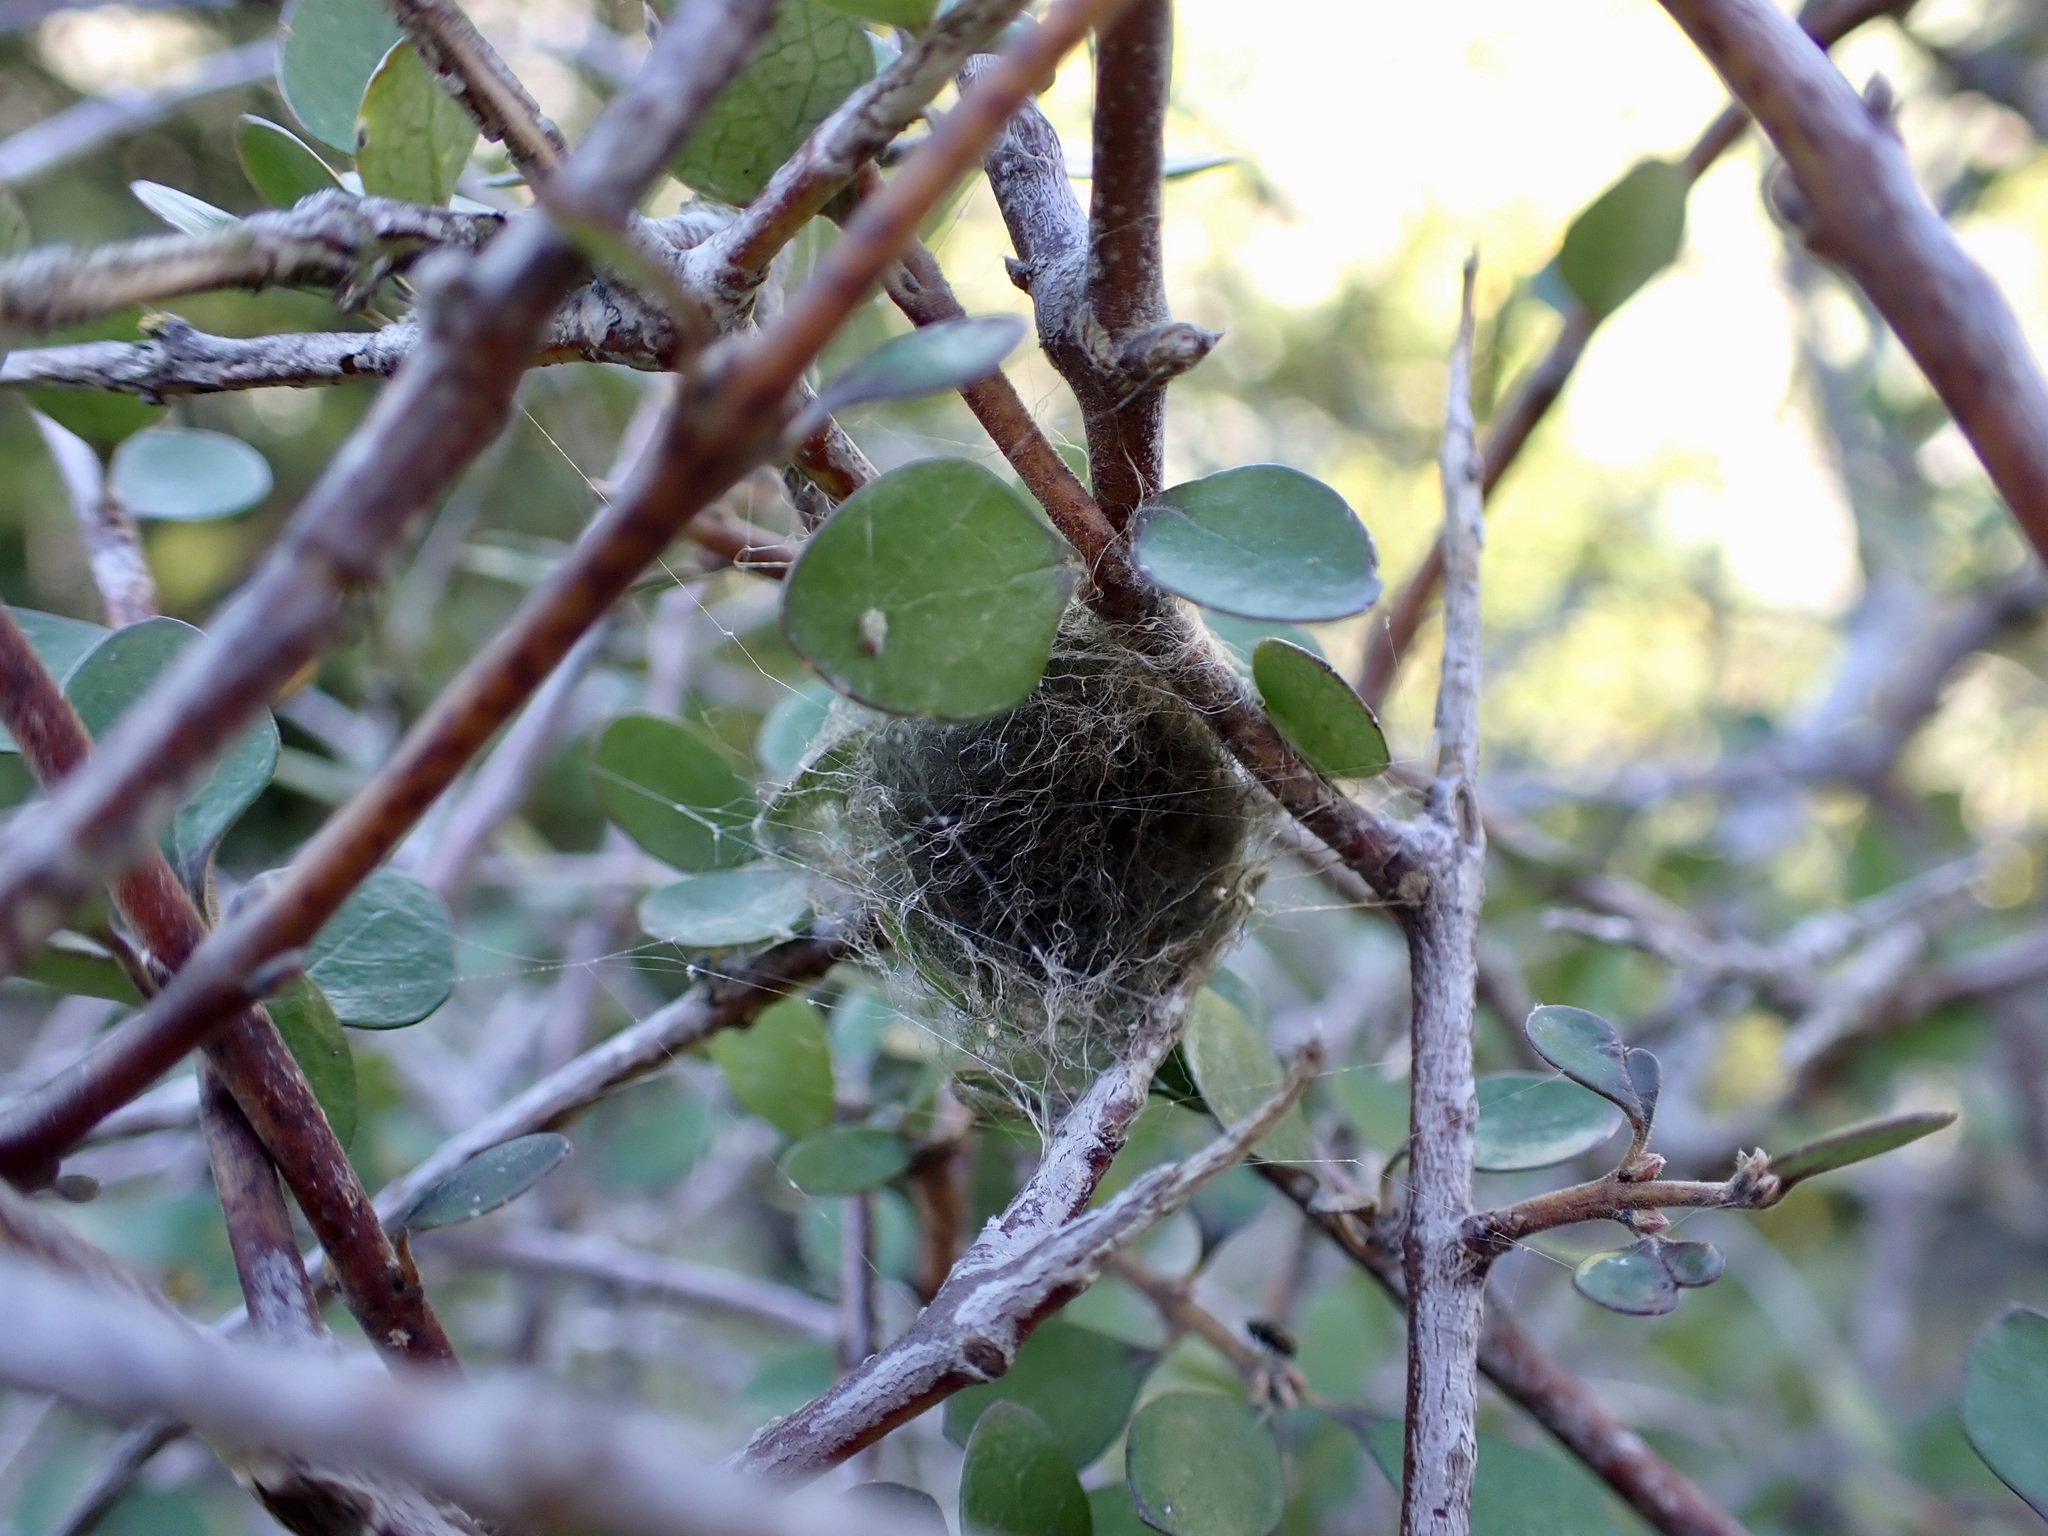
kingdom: Animalia
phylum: Arthropoda
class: Arachnida
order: Araneae
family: Araneidae
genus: Eriophora
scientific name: Eriophora pustulosa
